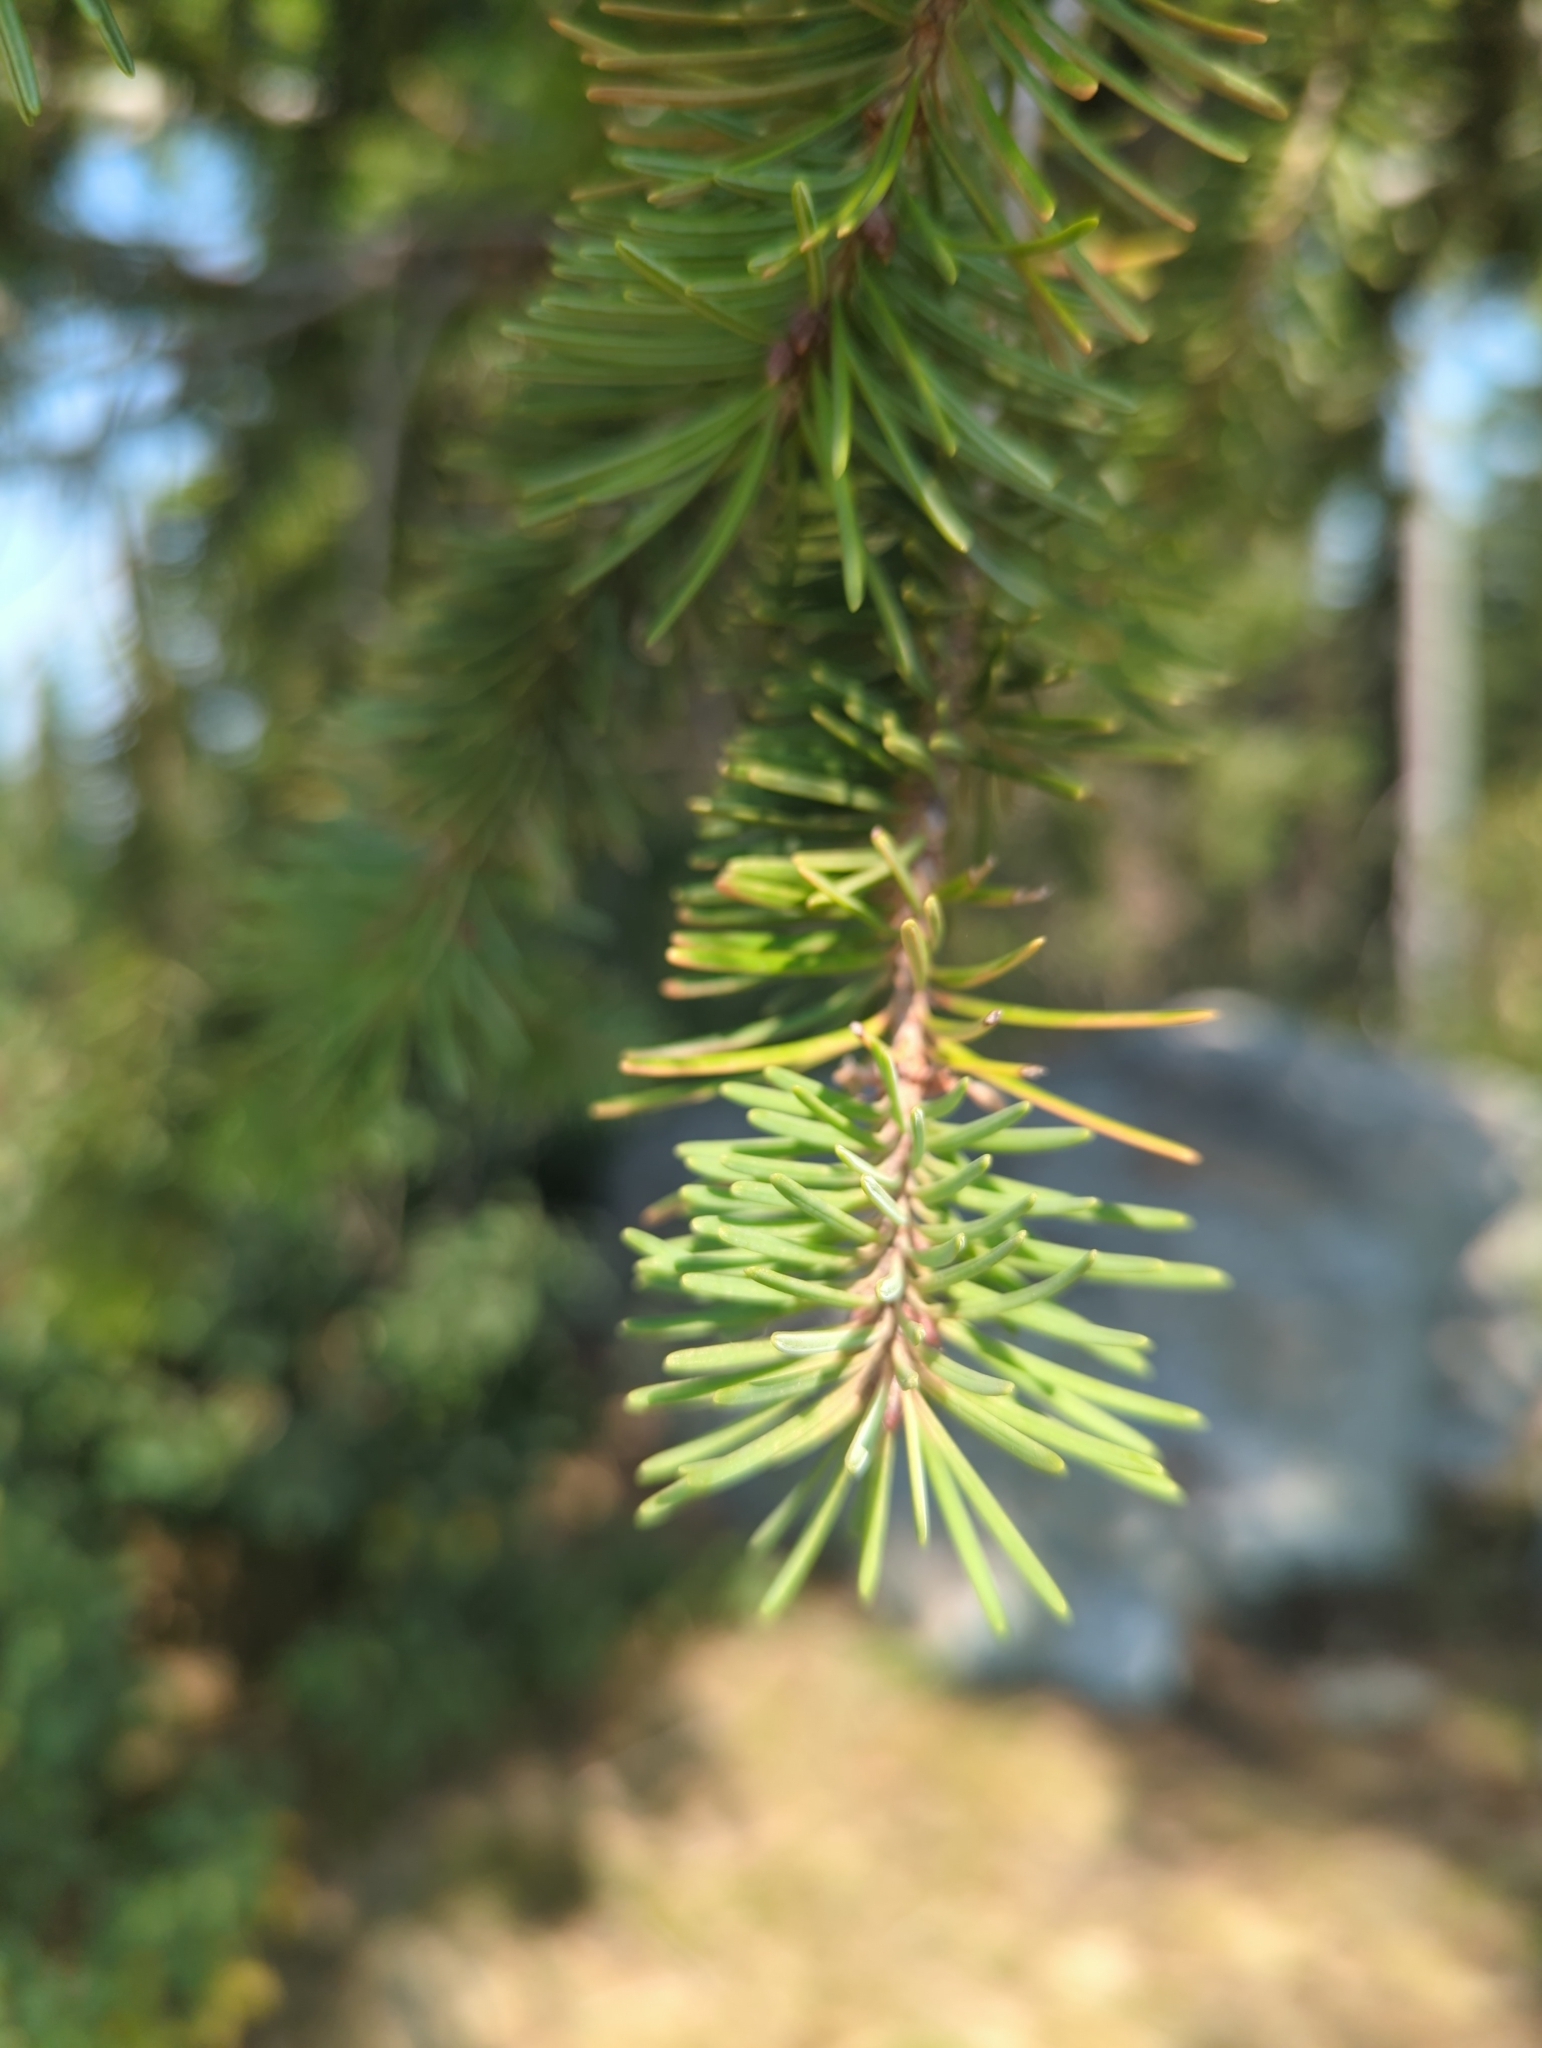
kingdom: Plantae
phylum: Tracheophyta
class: Pinopsida
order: Pinales
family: Pinaceae
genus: Pseudotsuga
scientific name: Pseudotsuga menziesii
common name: Douglas fir
